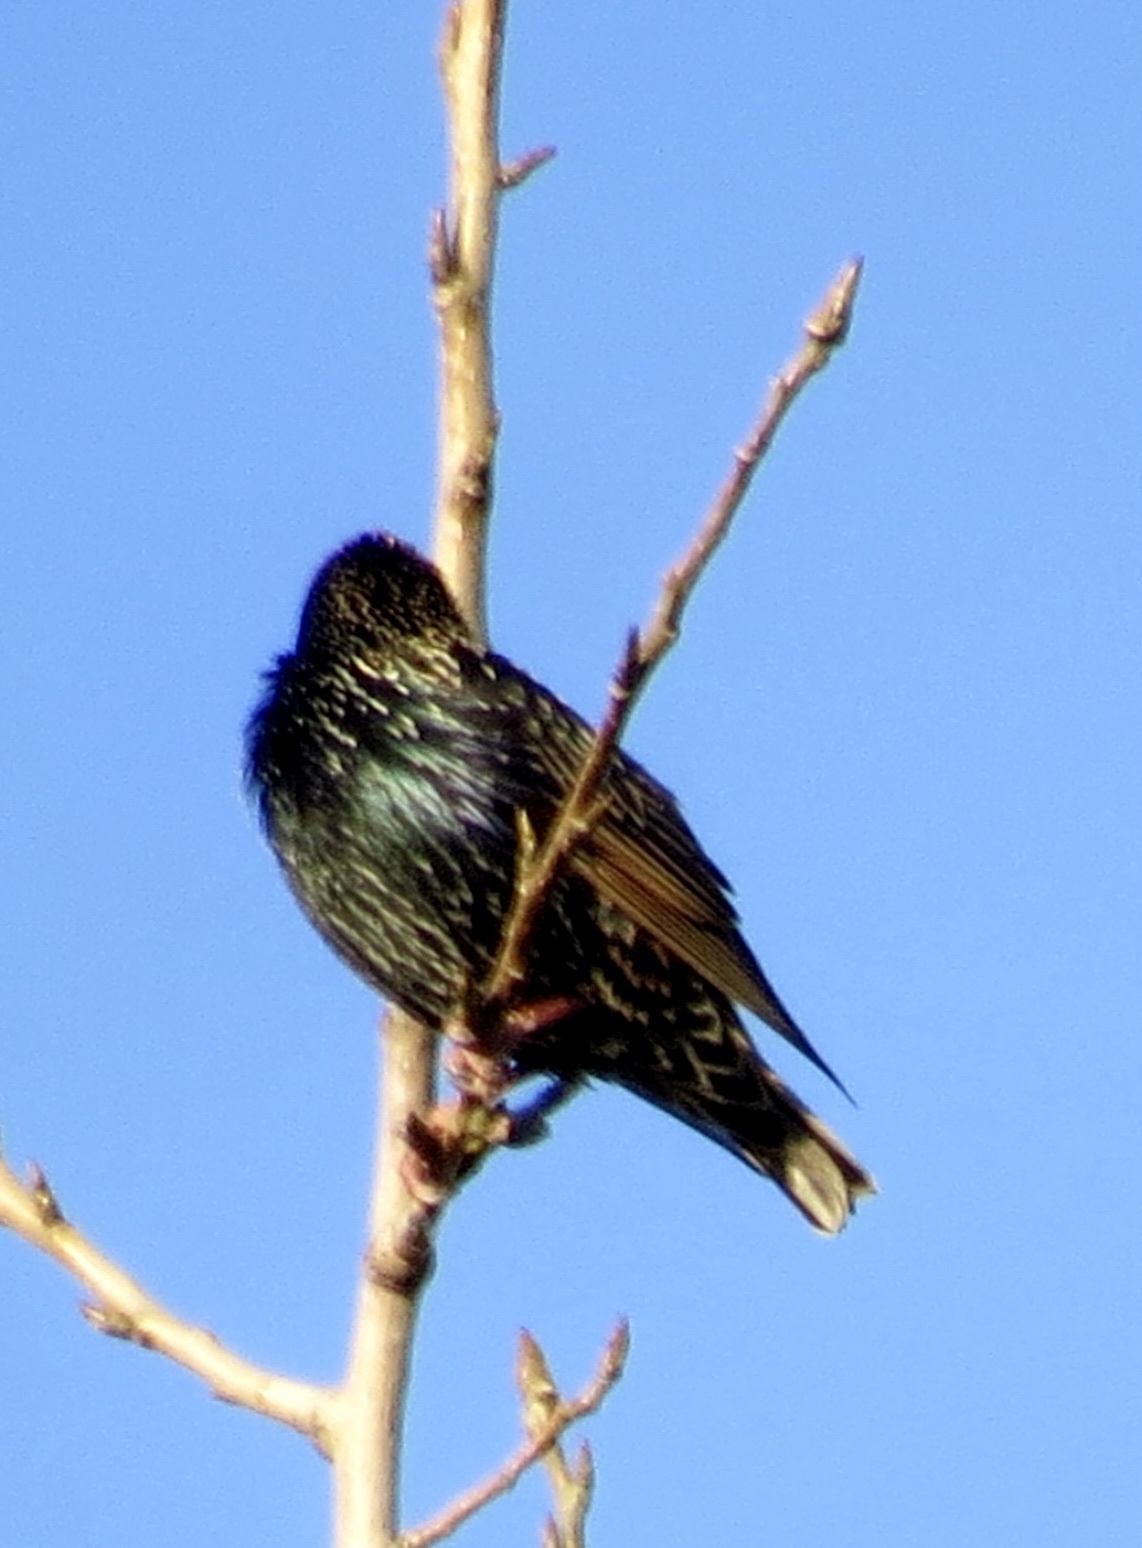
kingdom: Animalia
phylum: Chordata
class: Aves
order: Passeriformes
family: Sturnidae
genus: Sturnus
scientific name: Sturnus vulgaris
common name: Common starling
